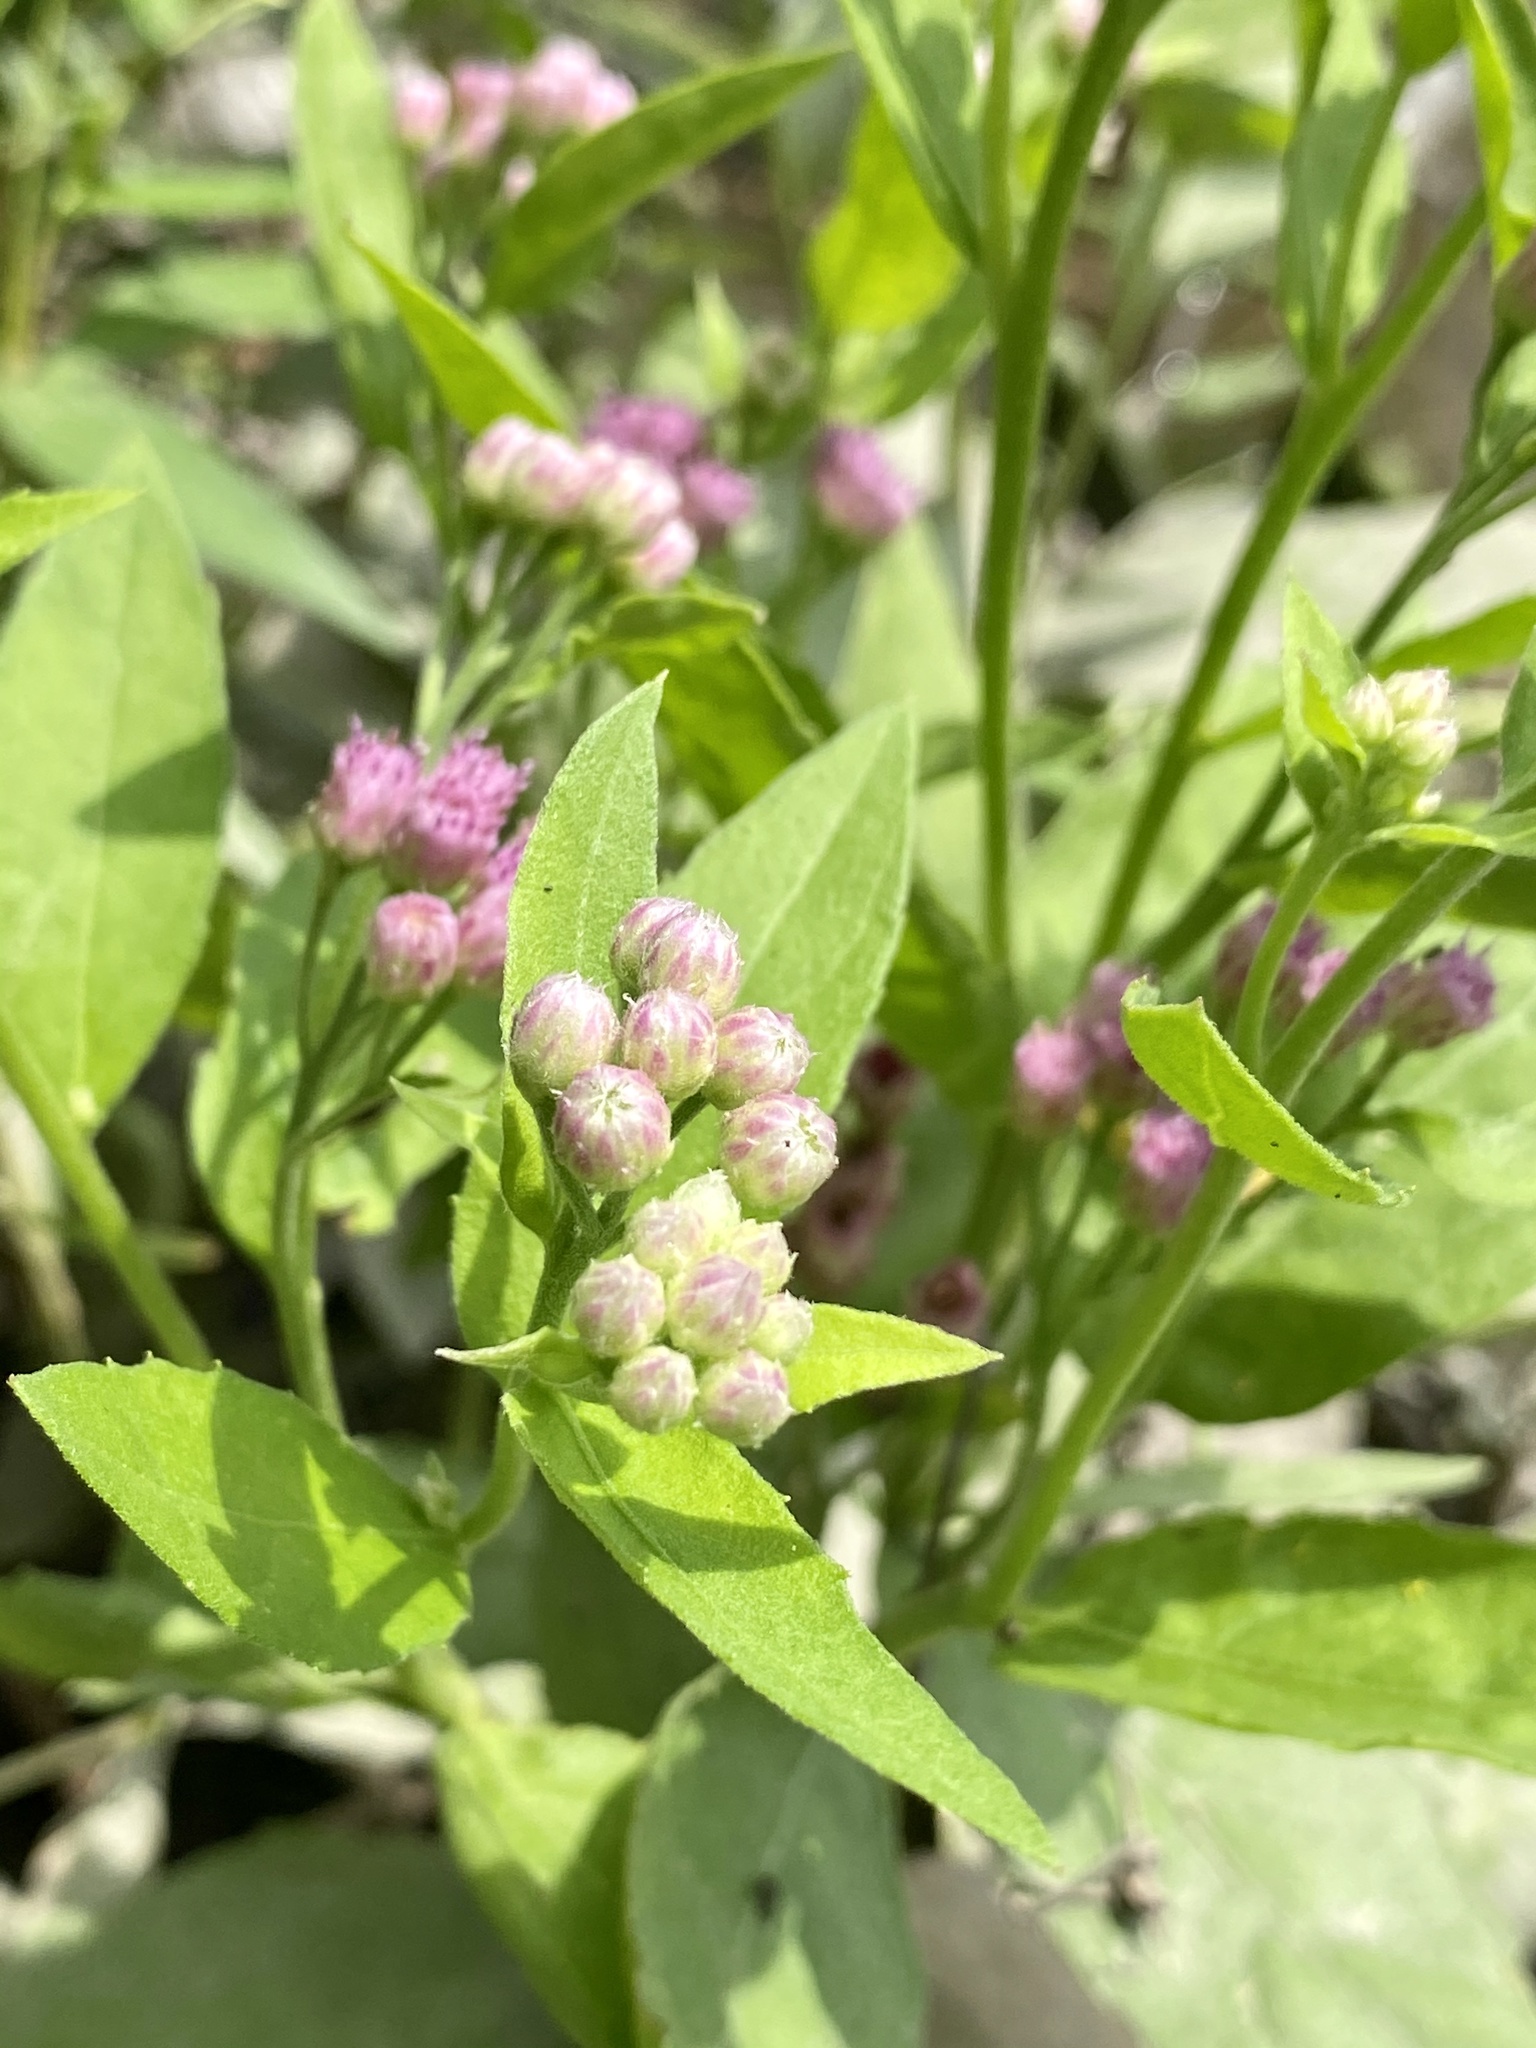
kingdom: Plantae
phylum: Tracheophyta
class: Magnoliopsida
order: Asterales
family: Asteraceae
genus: Pluchea
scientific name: Pluchea odorata
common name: Saltmarsh fleabane
